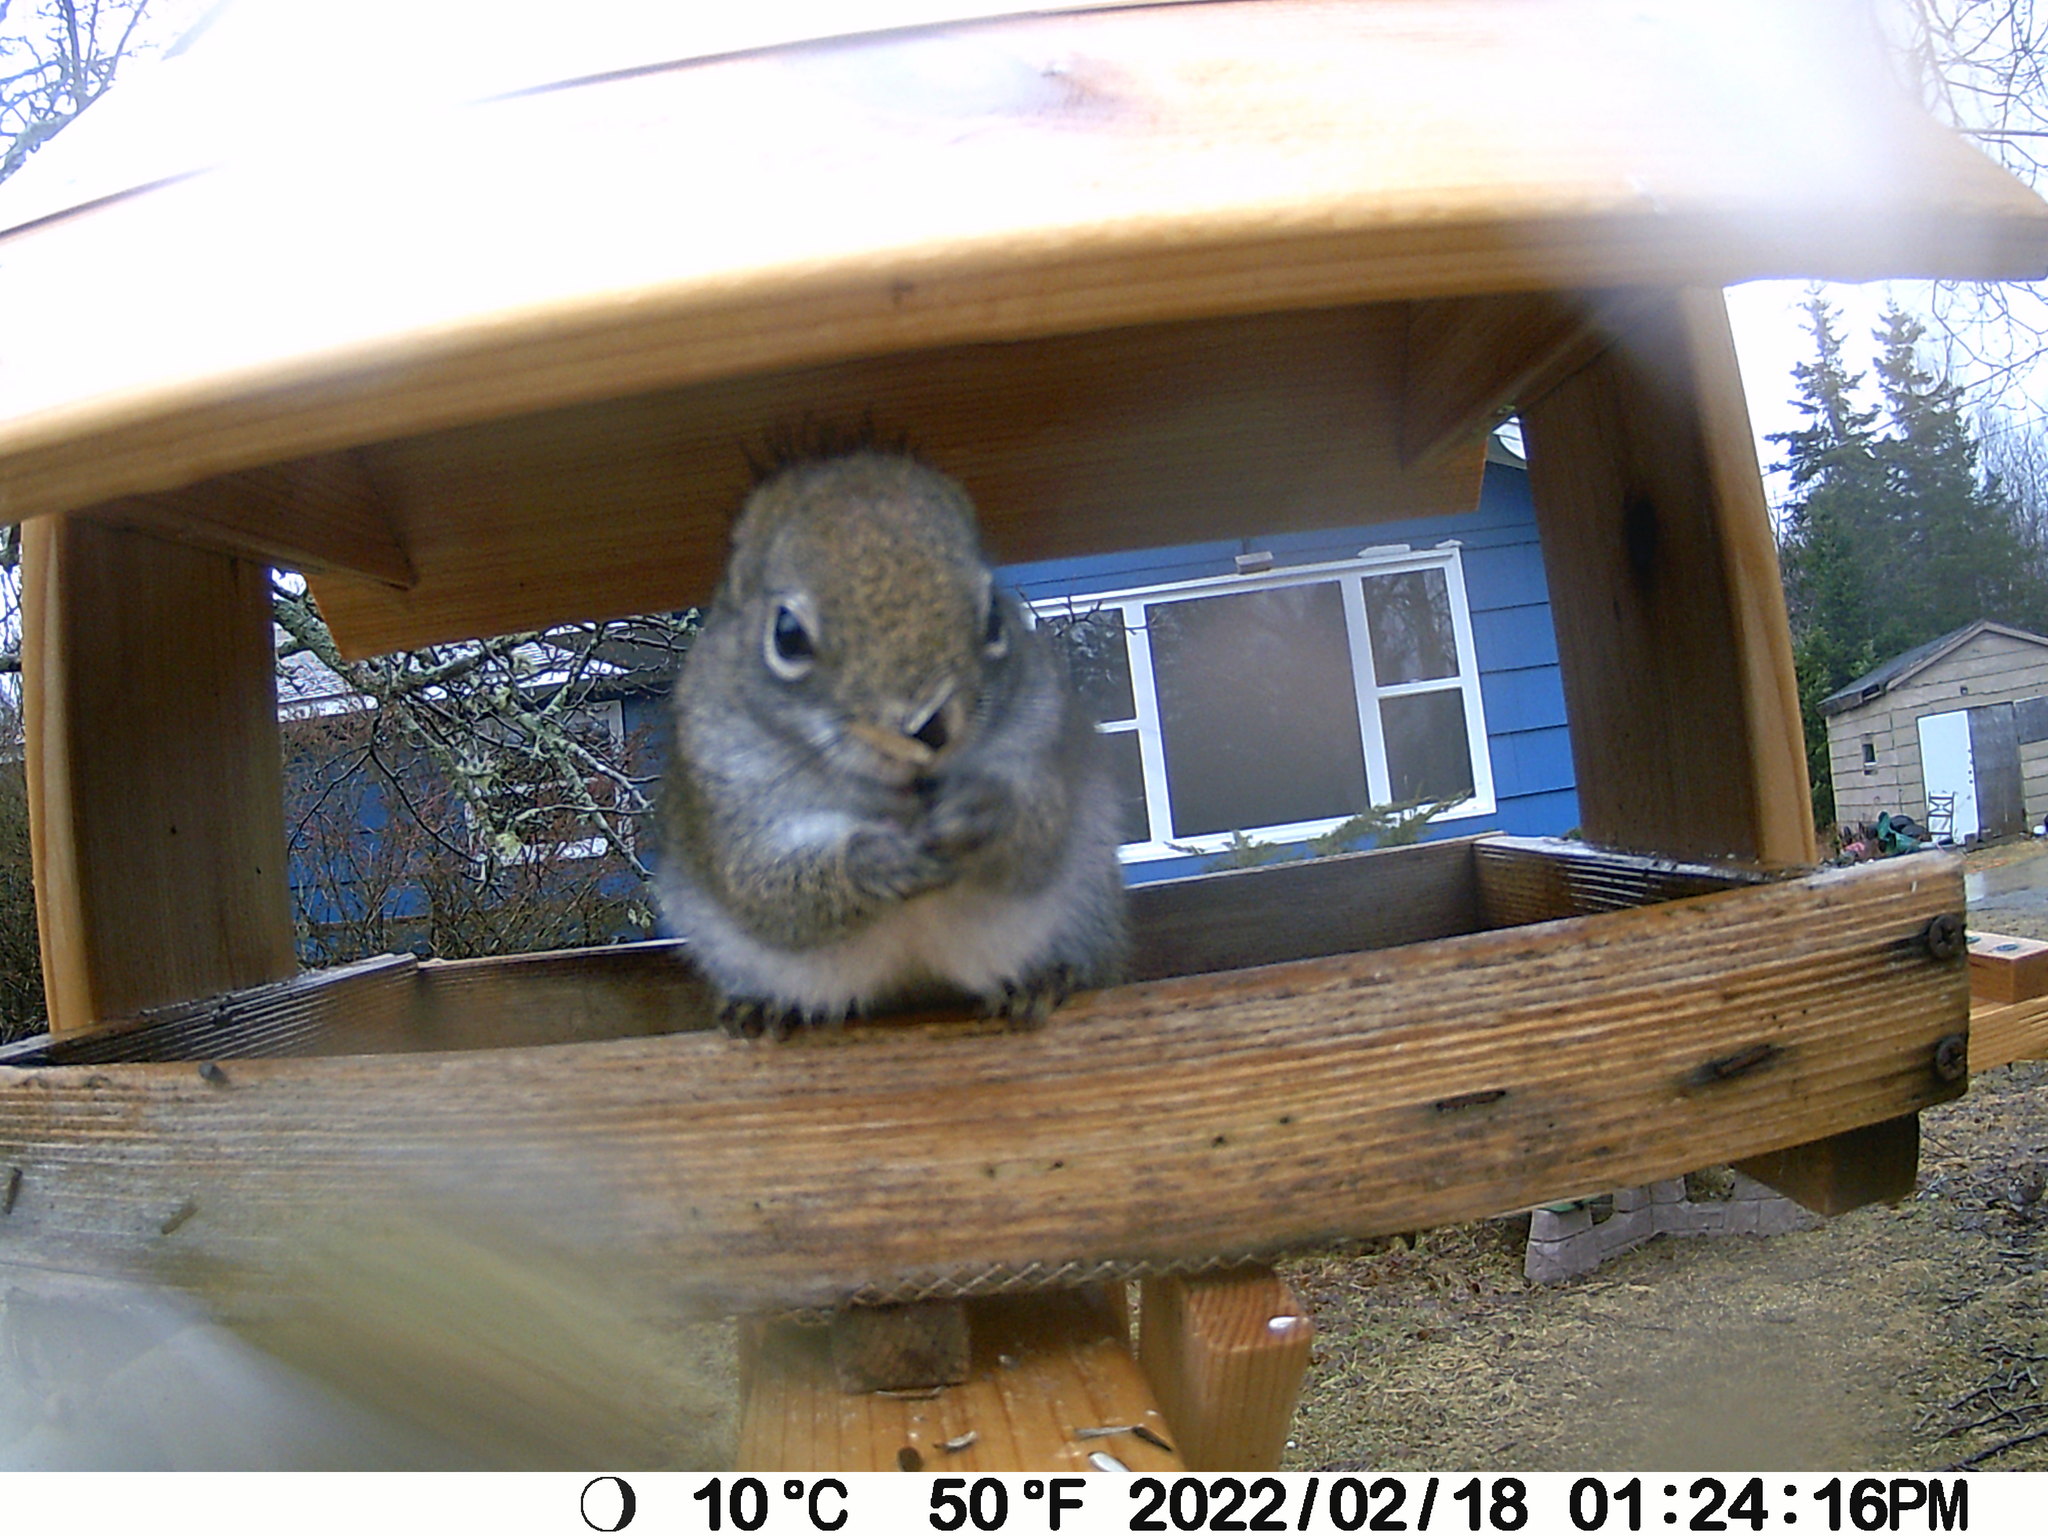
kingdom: Animalia
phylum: Chordata
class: Mammalia
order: Rodentia
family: Sciuridae
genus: Tamiasciurus
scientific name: Tamiasciurus hudsonicus
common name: Red squirrel
